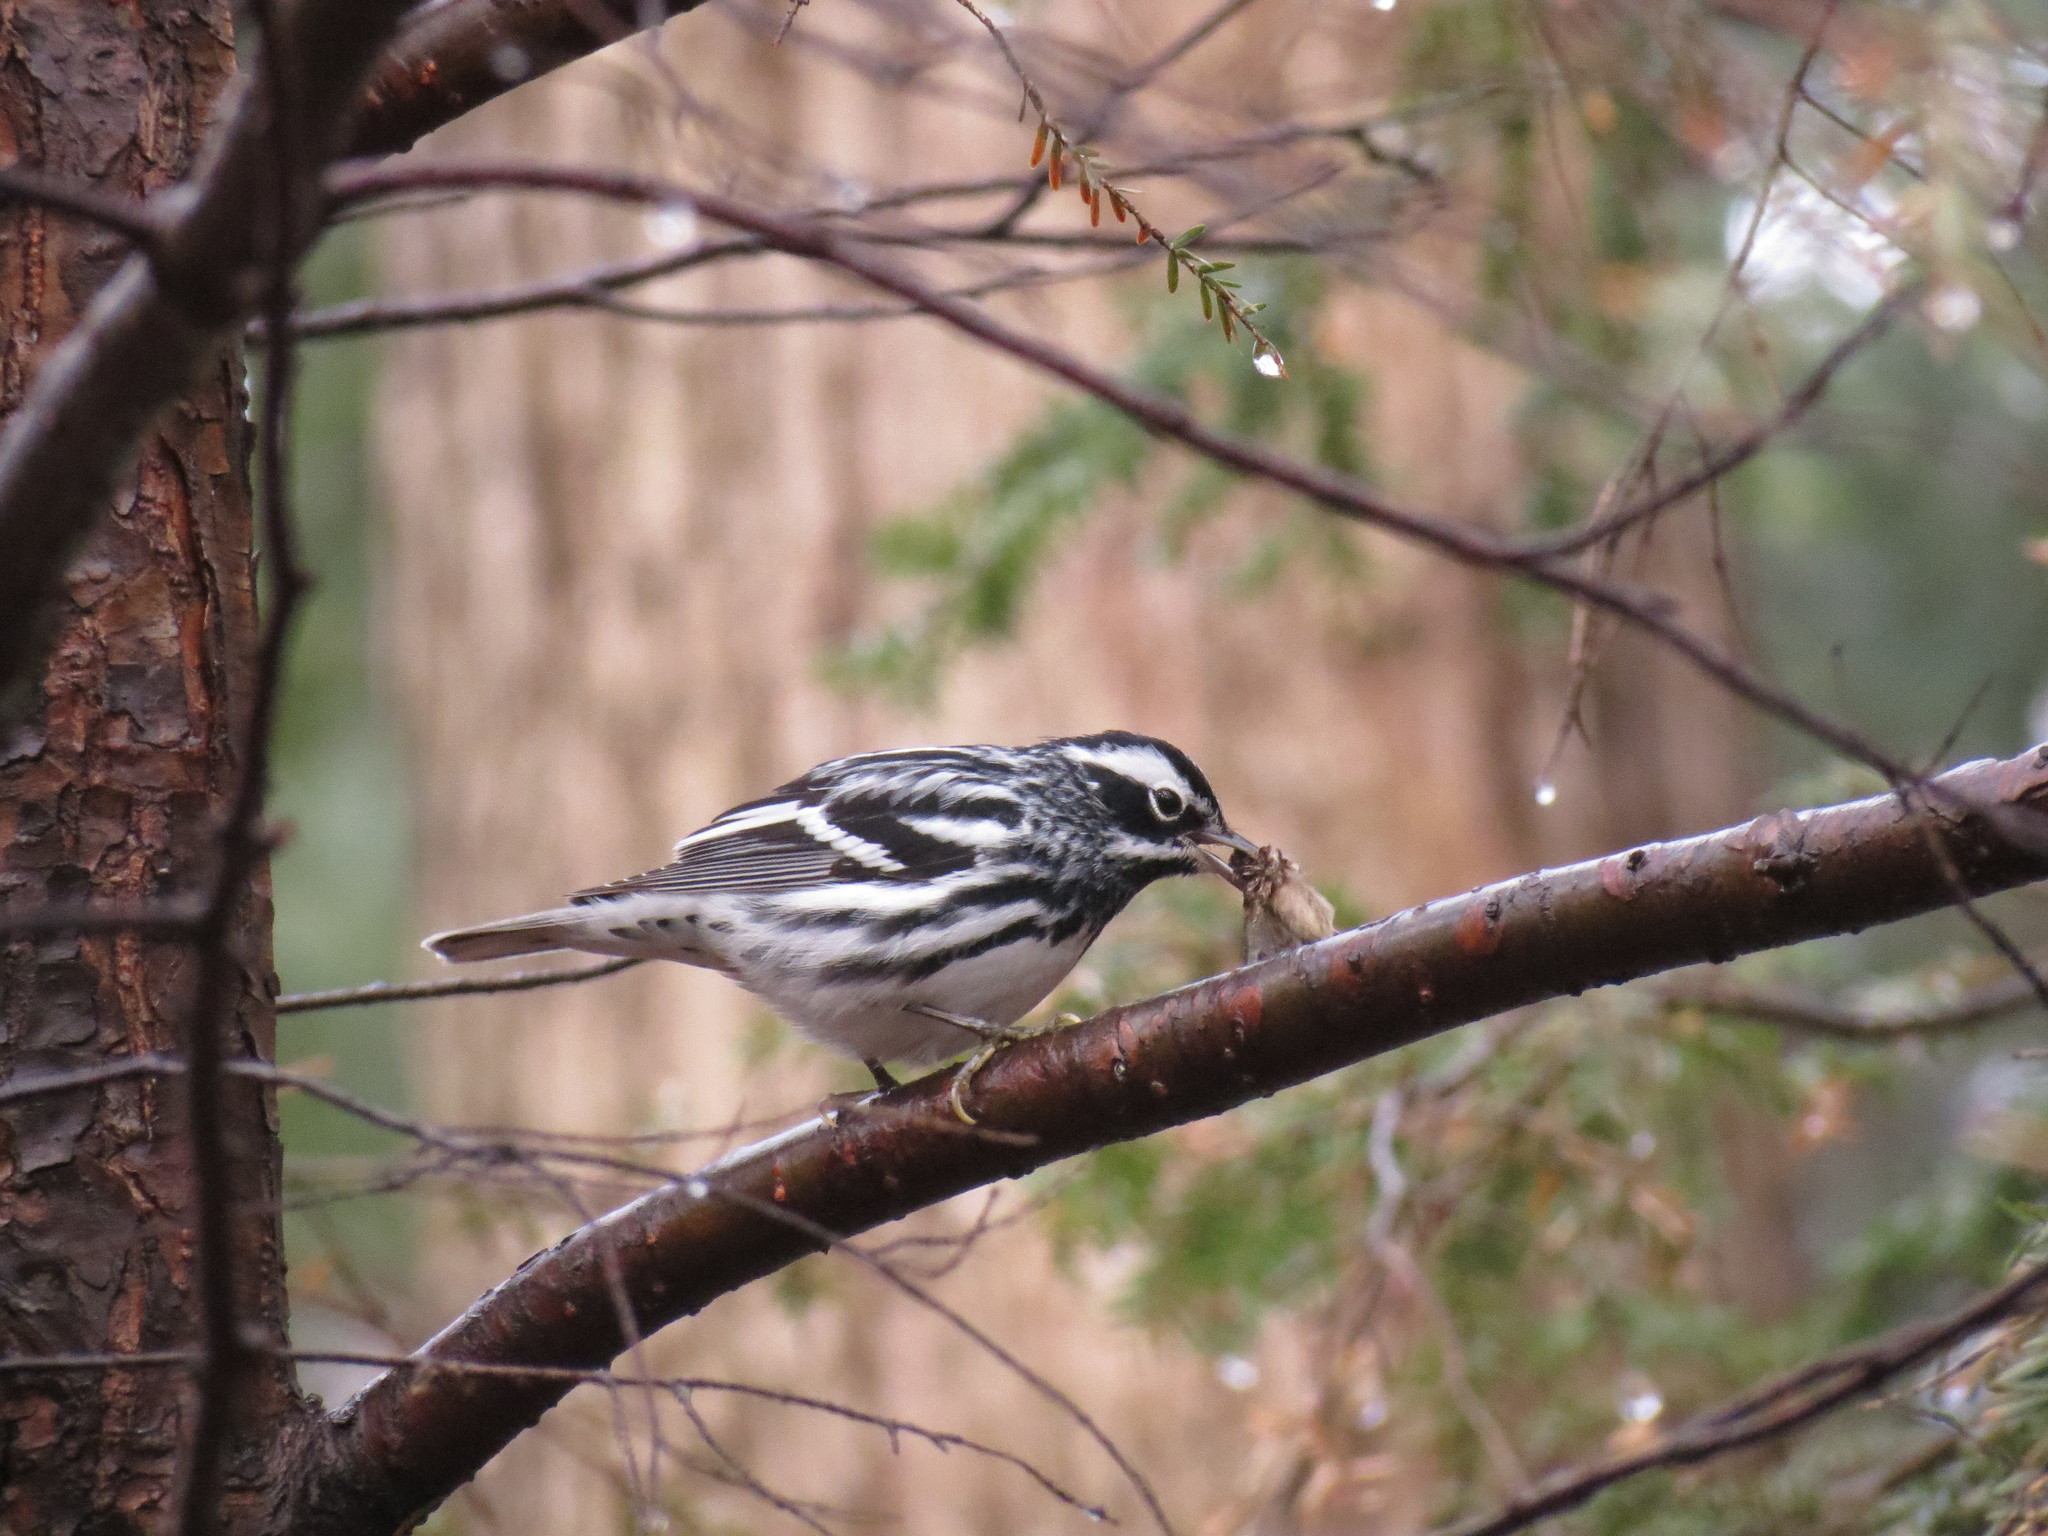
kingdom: Animalia
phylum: Chordata
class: Aves
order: Passeriformes
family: Parulidae
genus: Mniotilta
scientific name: Mniotilta varia
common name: Black-and-white warbler
